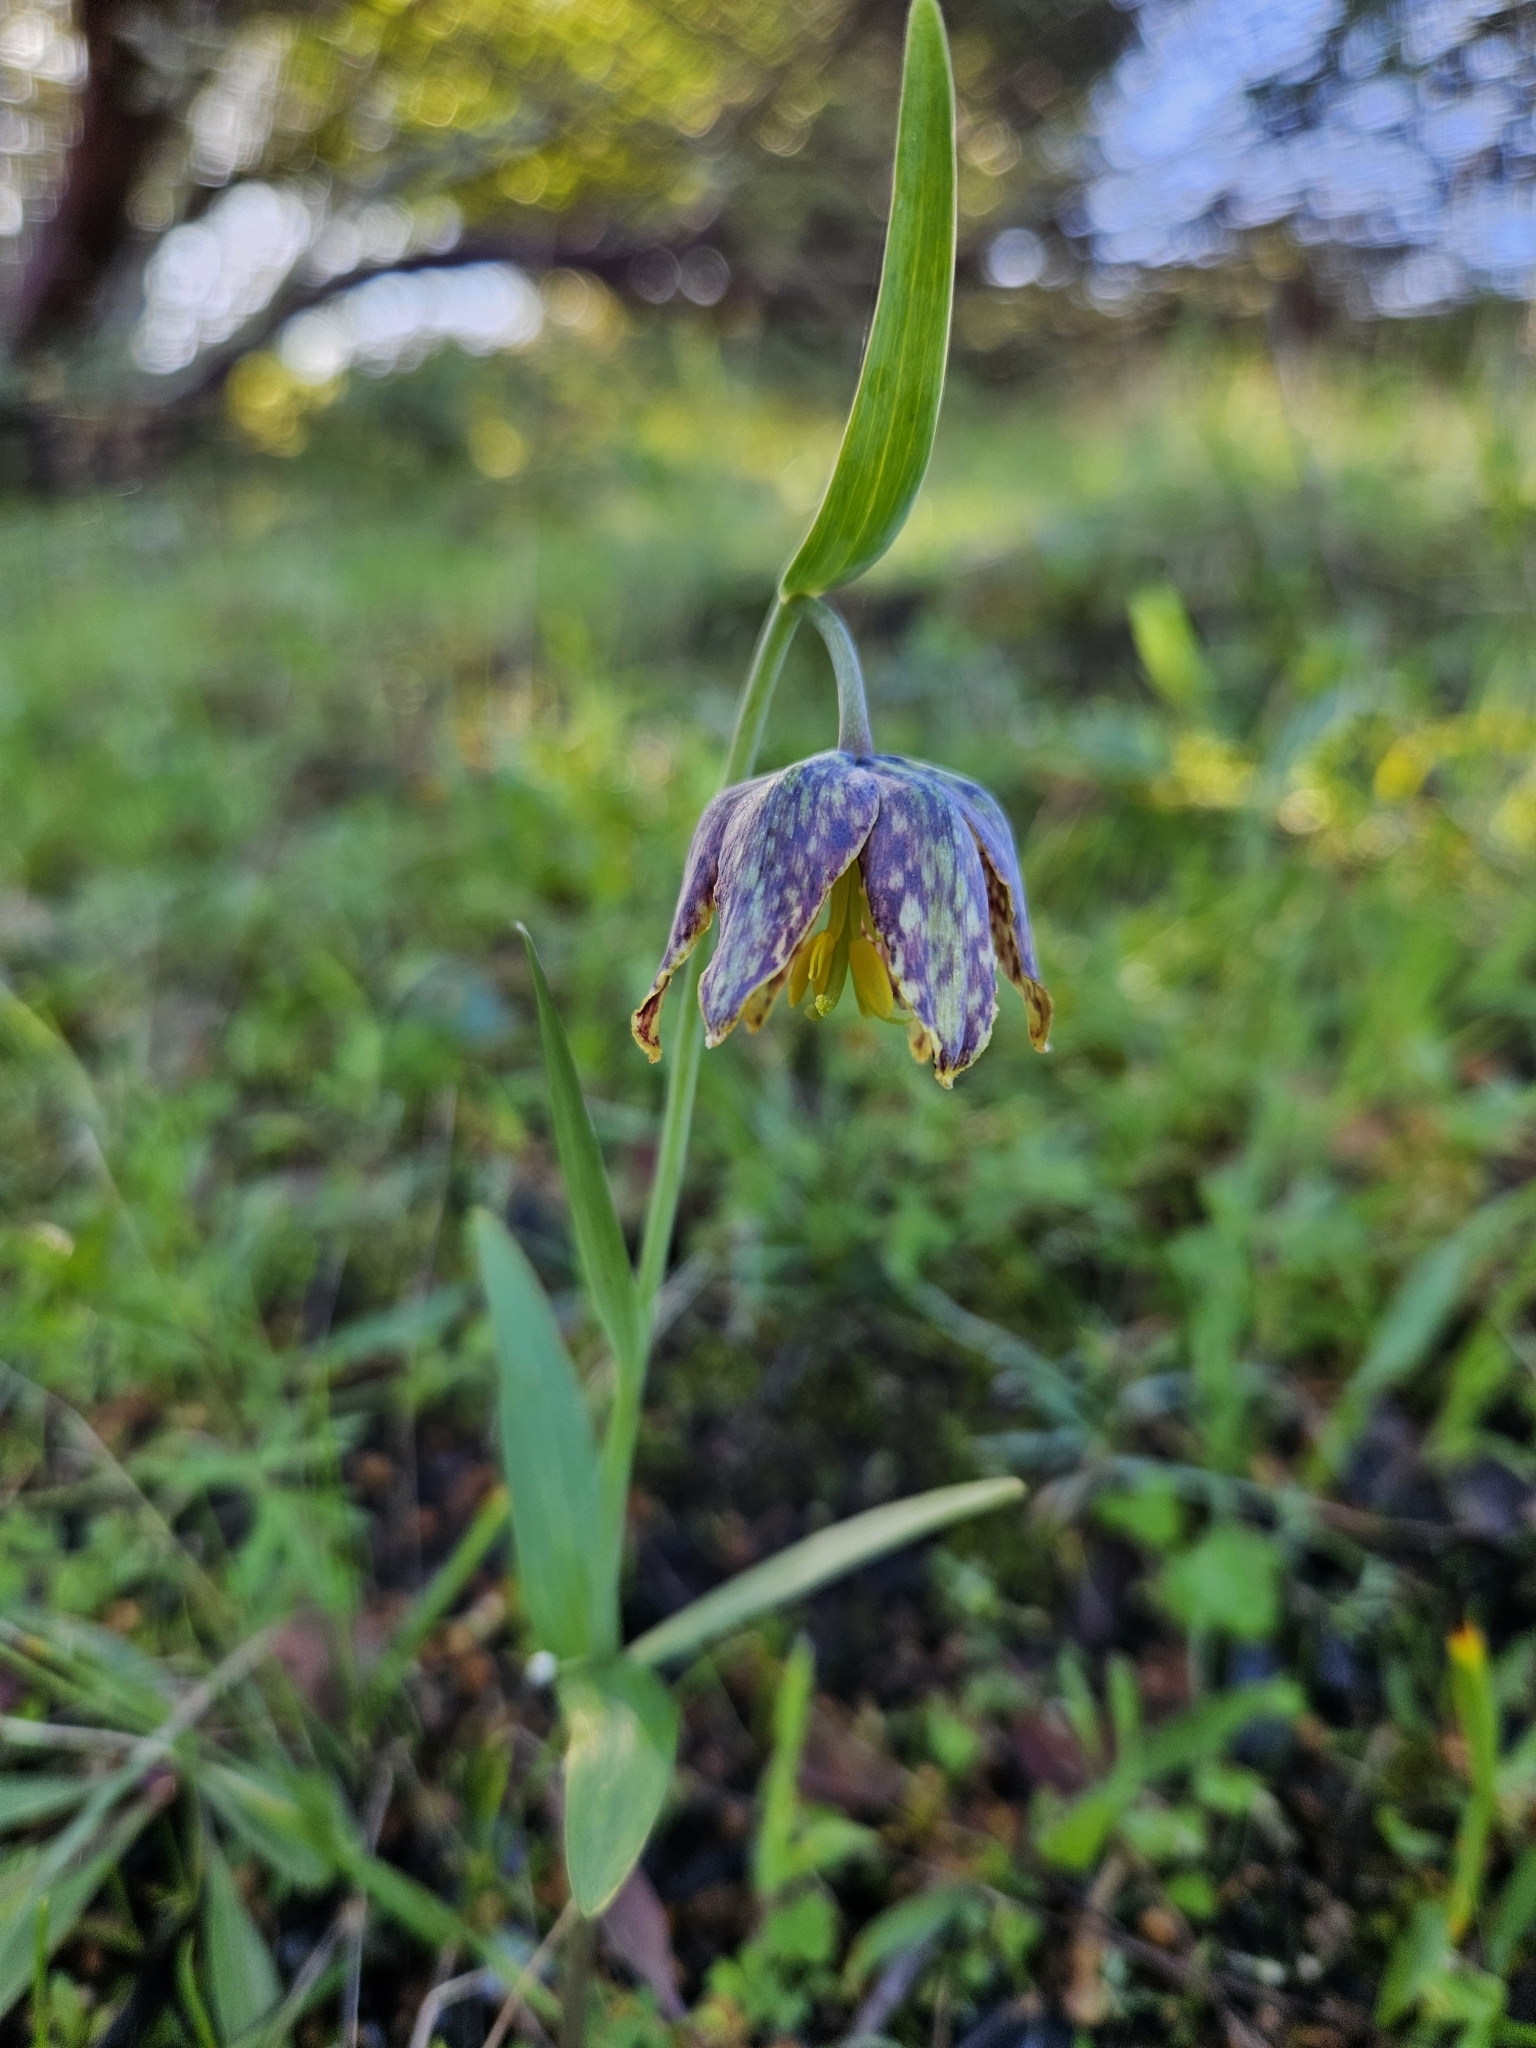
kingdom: Plantae
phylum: Tracheophyta
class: Liliopsida
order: Liliales
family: Liliaceae
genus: Fritillaria
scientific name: Fritillaria affinis
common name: Ojai fritillary
